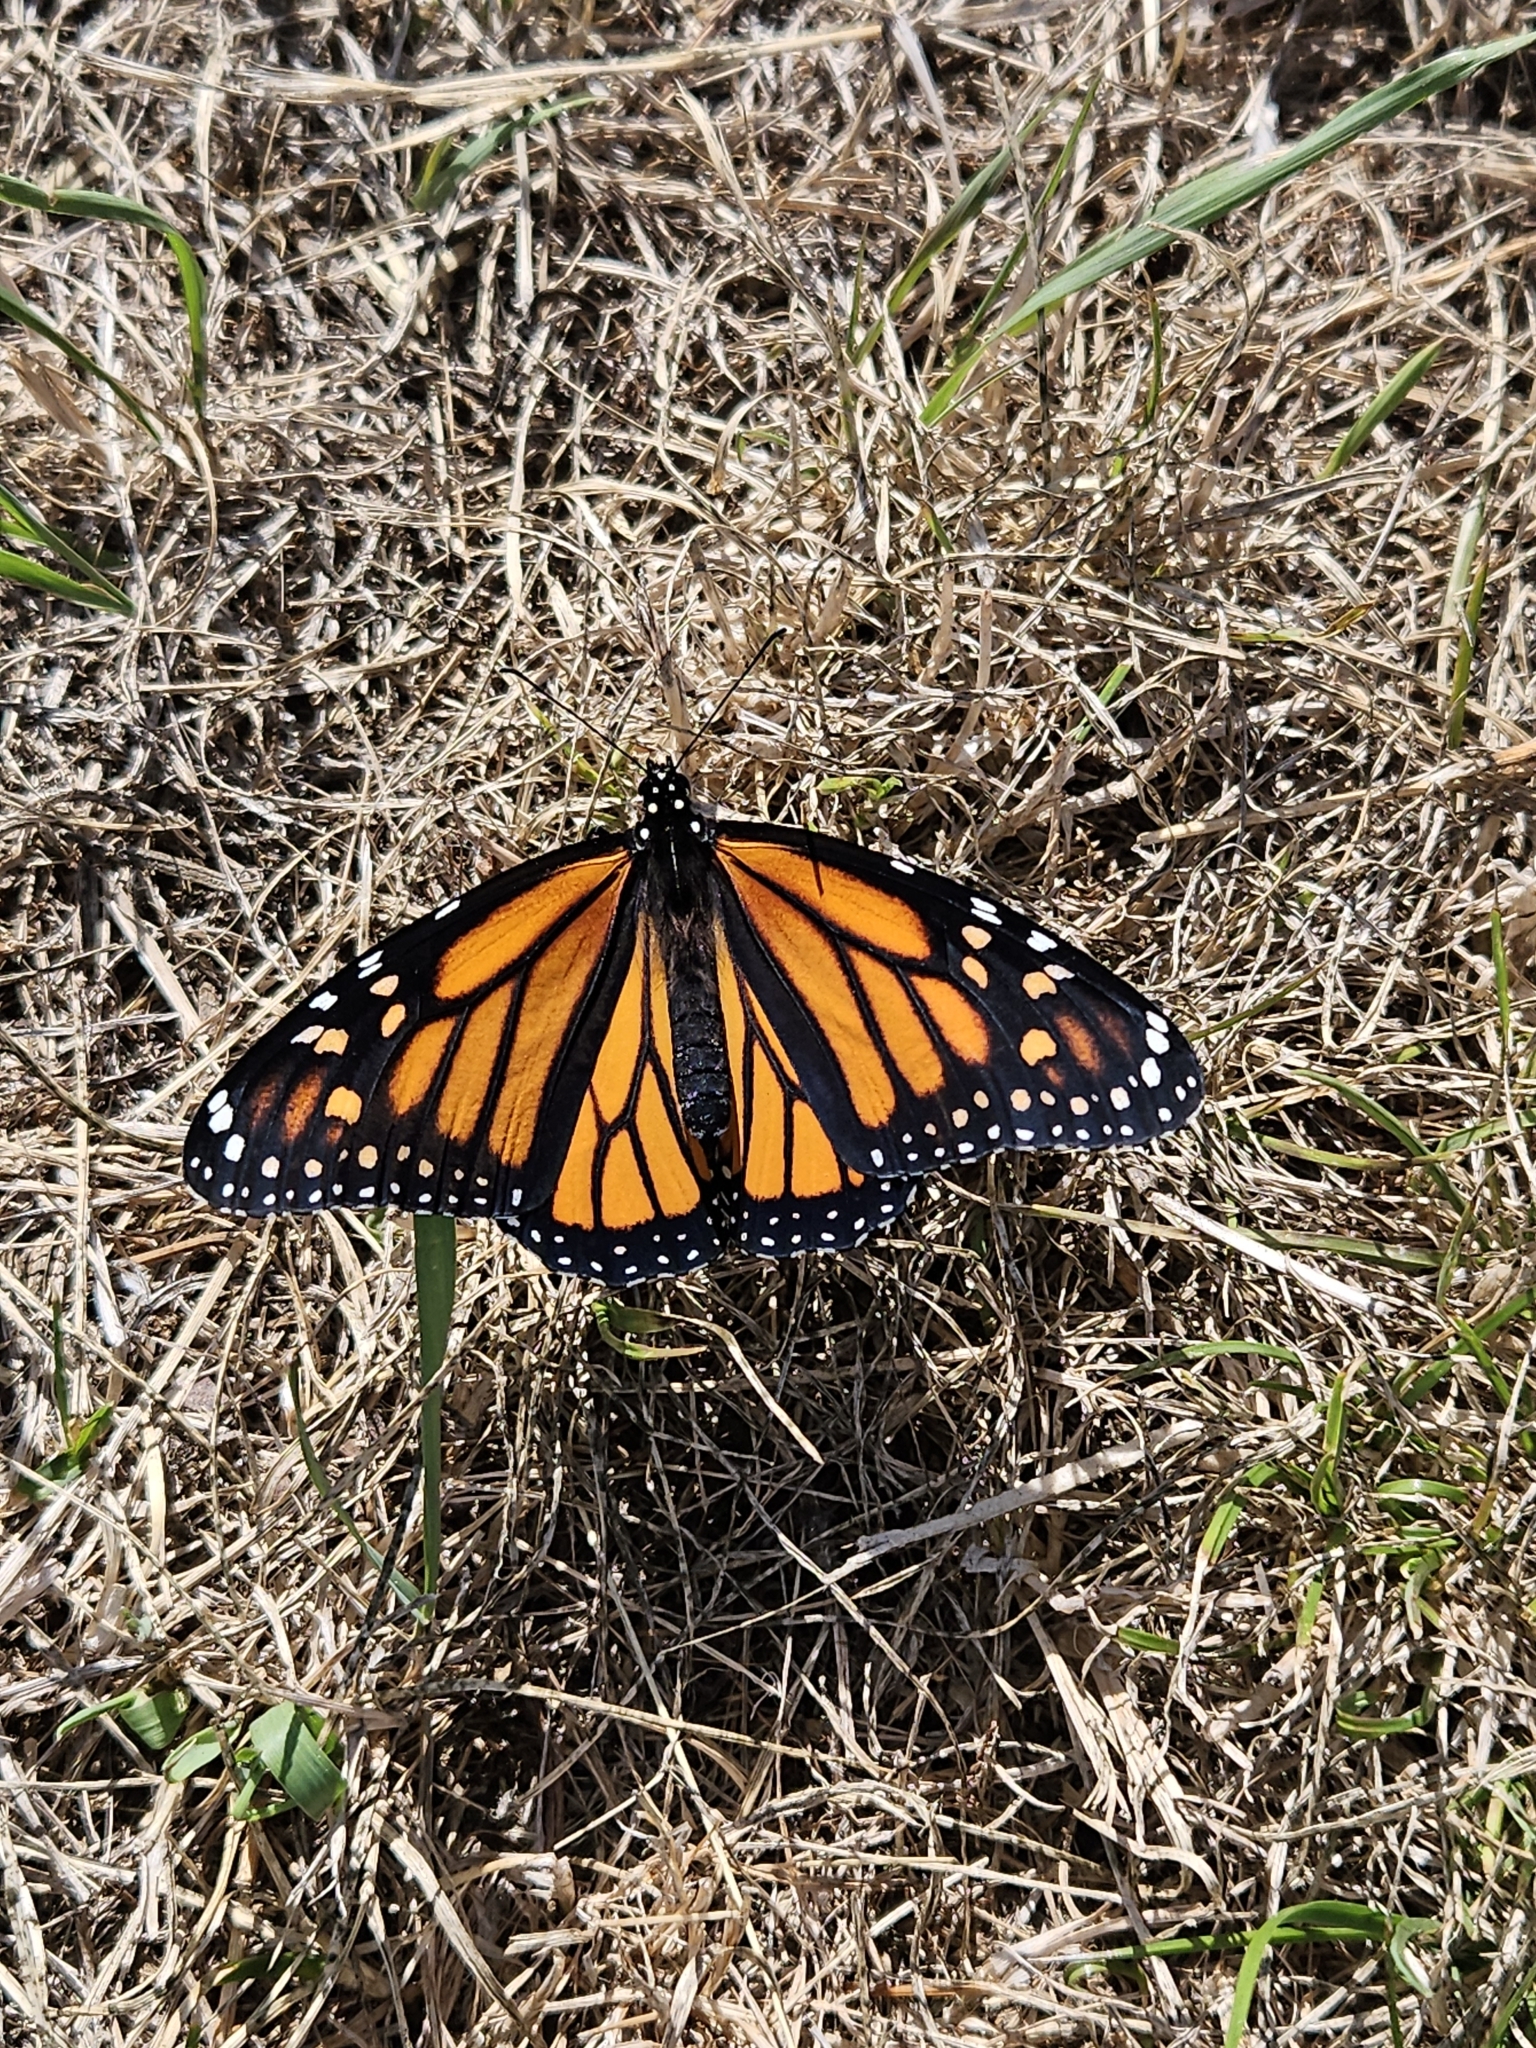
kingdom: Animalia
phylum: Arthropoda
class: Insecta
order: Lepidoptera
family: Nymphalidae
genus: Danaus
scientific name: Danaus plexippus
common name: Monarch
